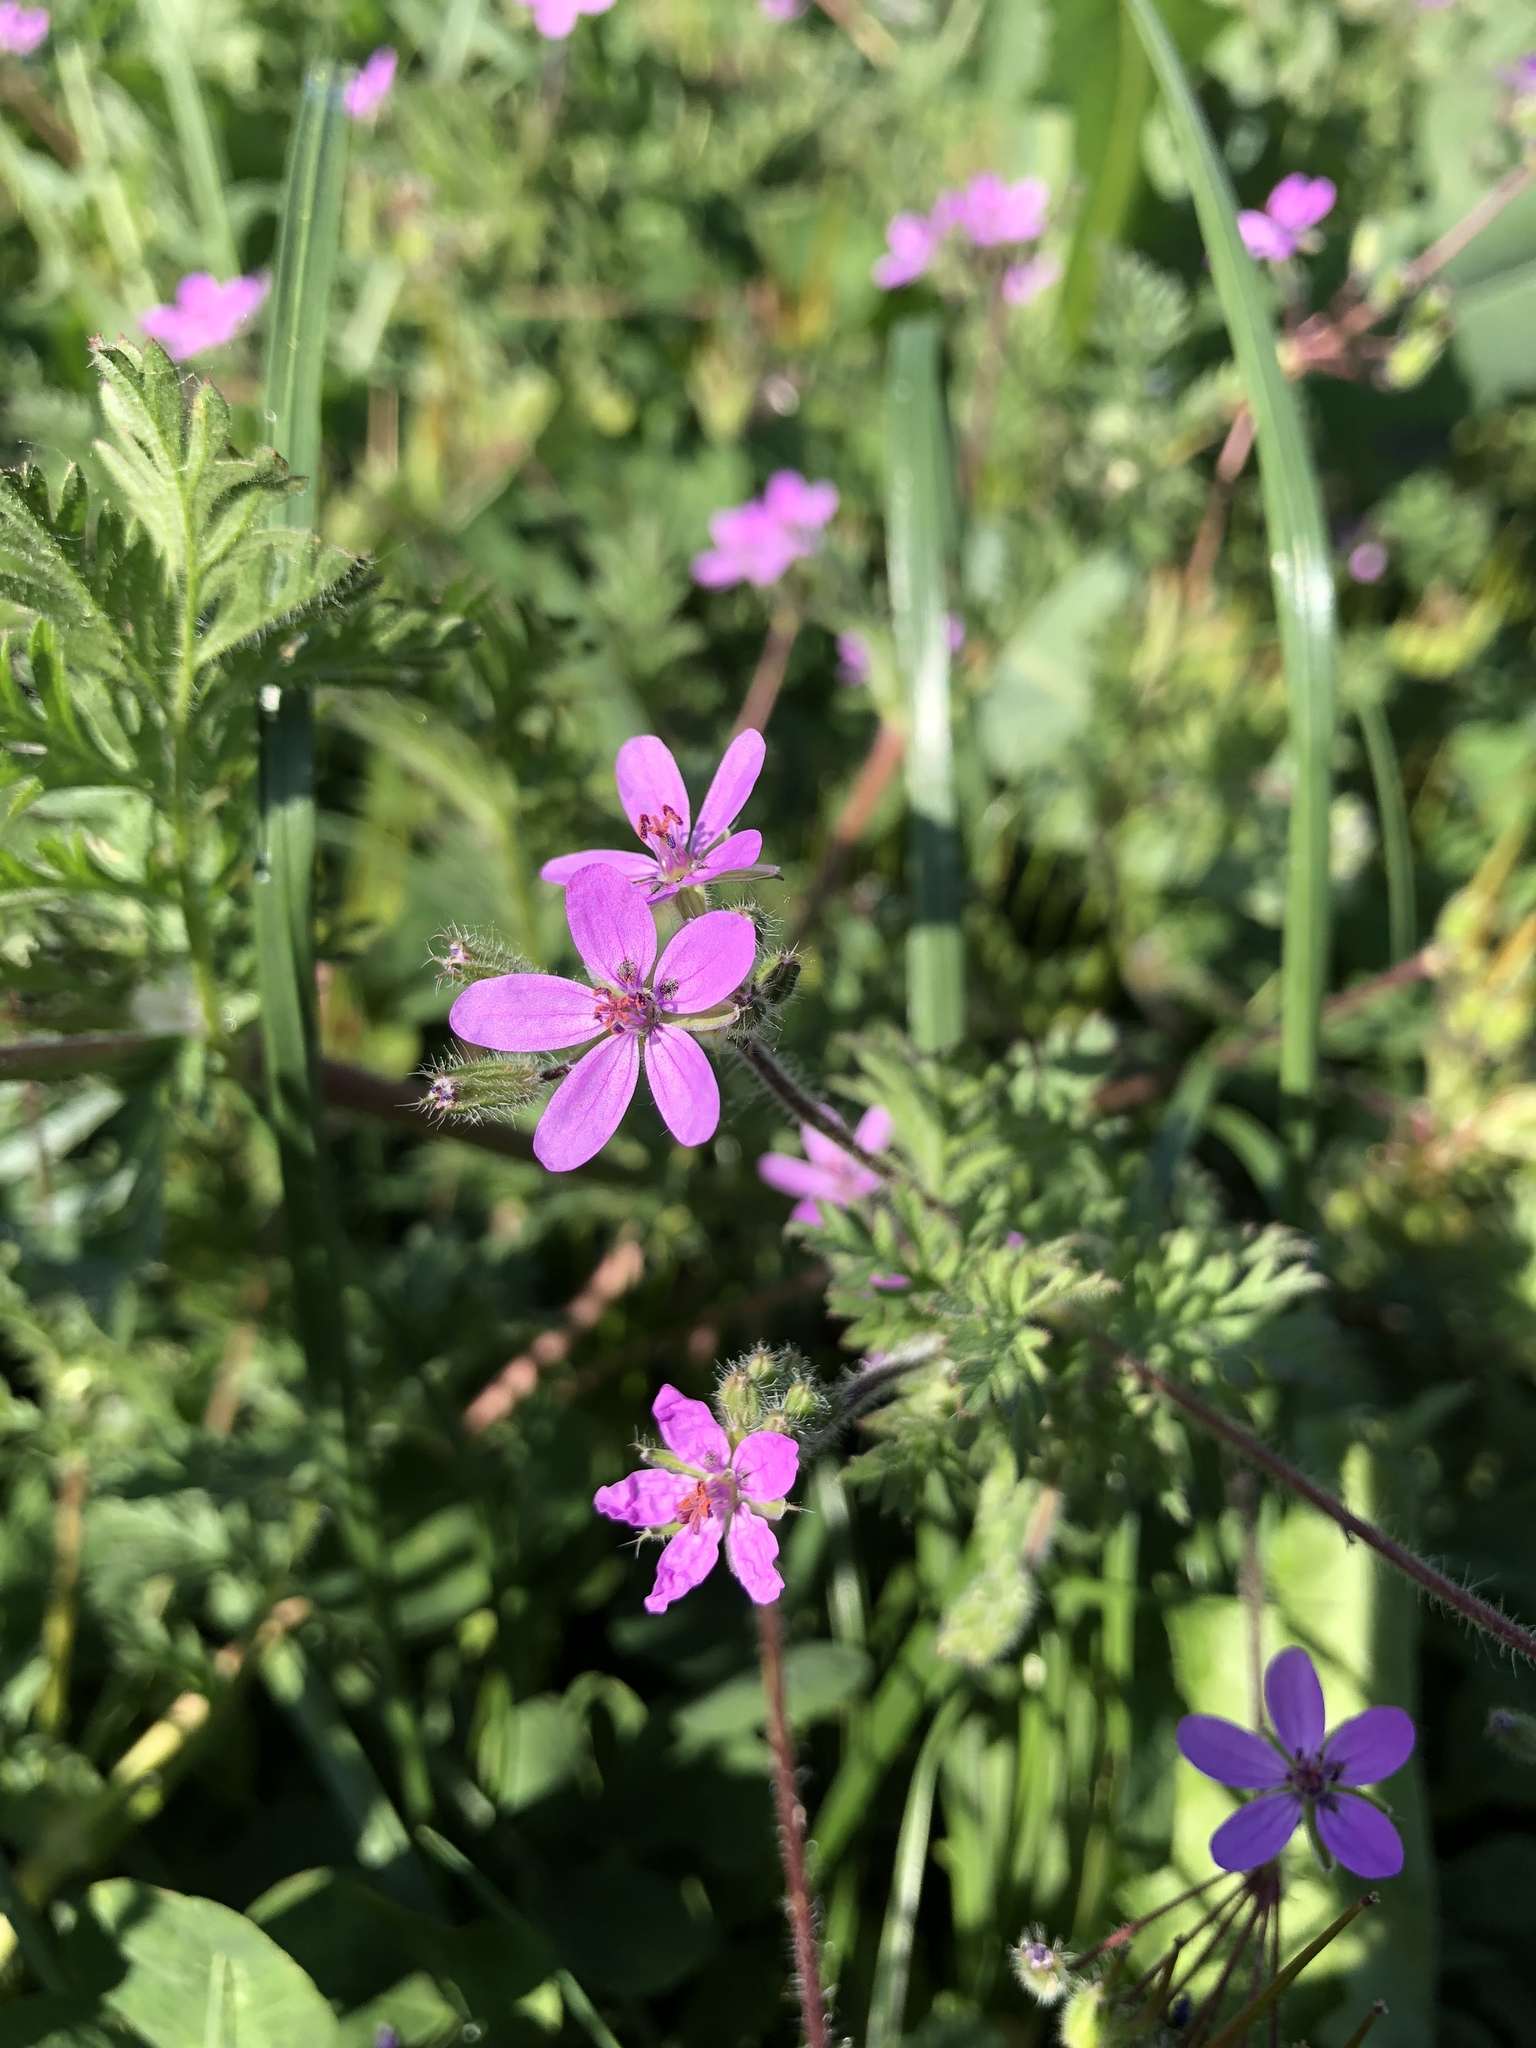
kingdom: Plantae
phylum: Tracheophyta
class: Magnoliopsida
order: Geraniales
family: Geraniaceae
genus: Erodium
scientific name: Erodium cicutarium
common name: Common stork's-bill
